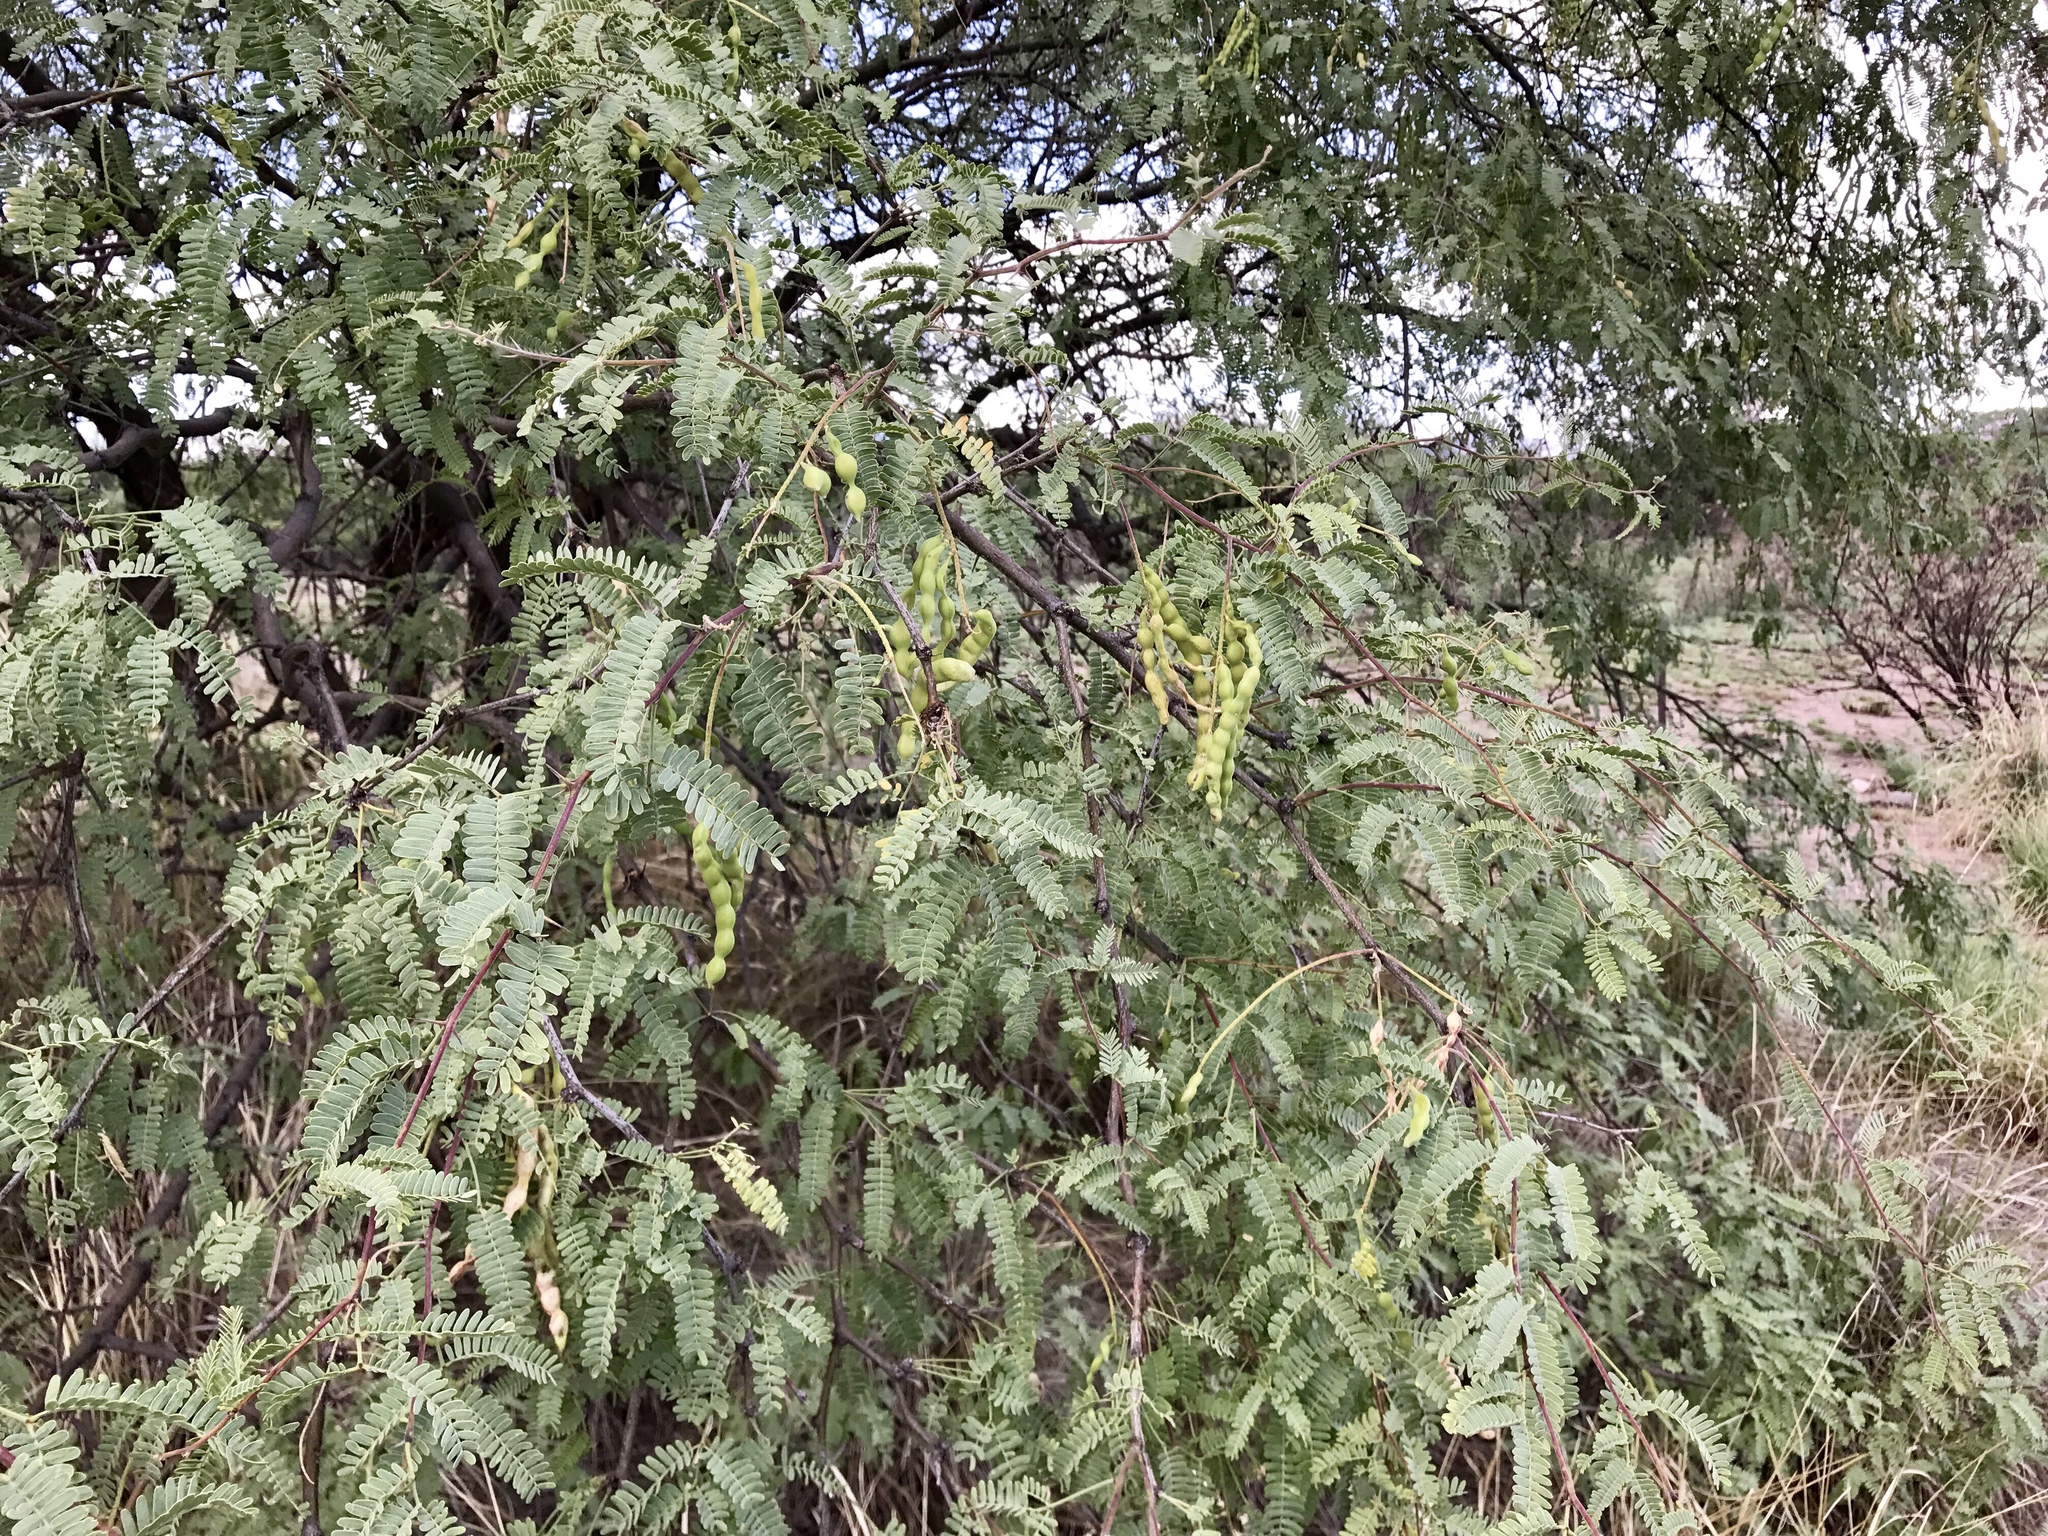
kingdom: Plantae
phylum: Tracheophyta
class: Magnoliopsida
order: Fabales
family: Fabaceae
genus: Prosopis
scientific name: Prosopis velutina
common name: Velvet mesquite
